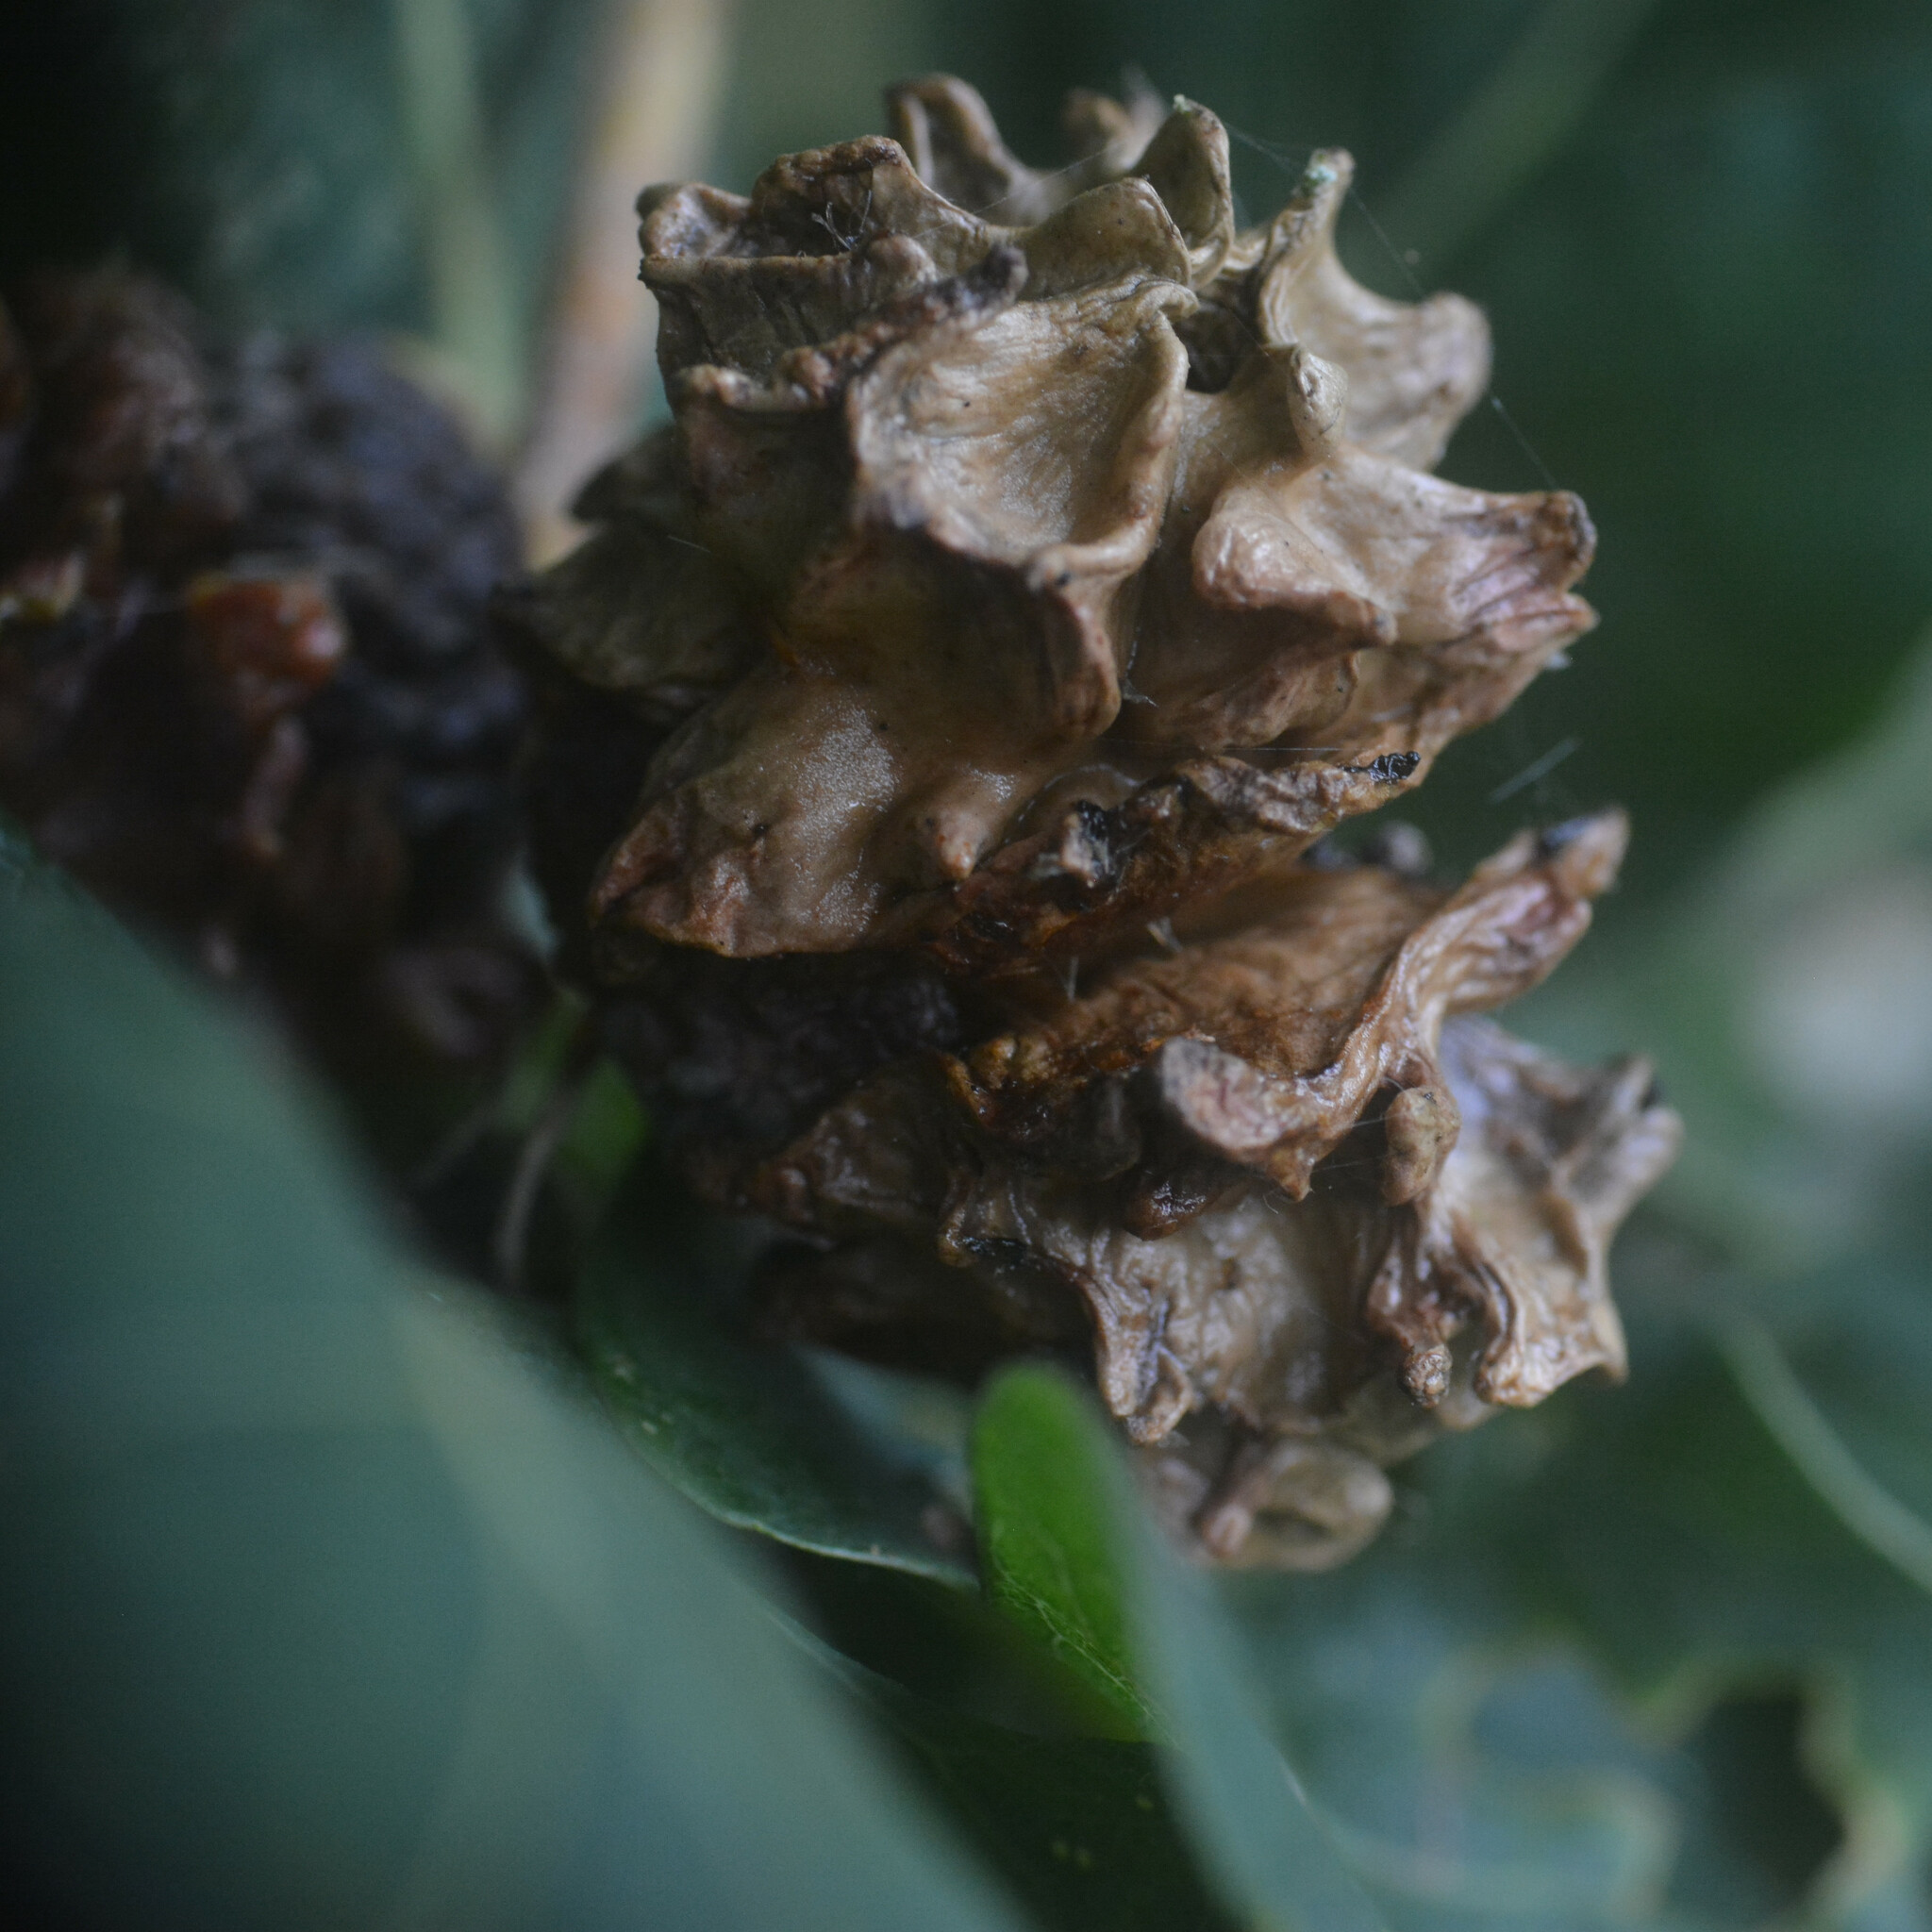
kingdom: Animalia
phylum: Arthropoda
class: Insecta
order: Hymenoptera
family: Cynipidae
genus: Andricus
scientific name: Andricus quercuscalicis
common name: Knopper gall
